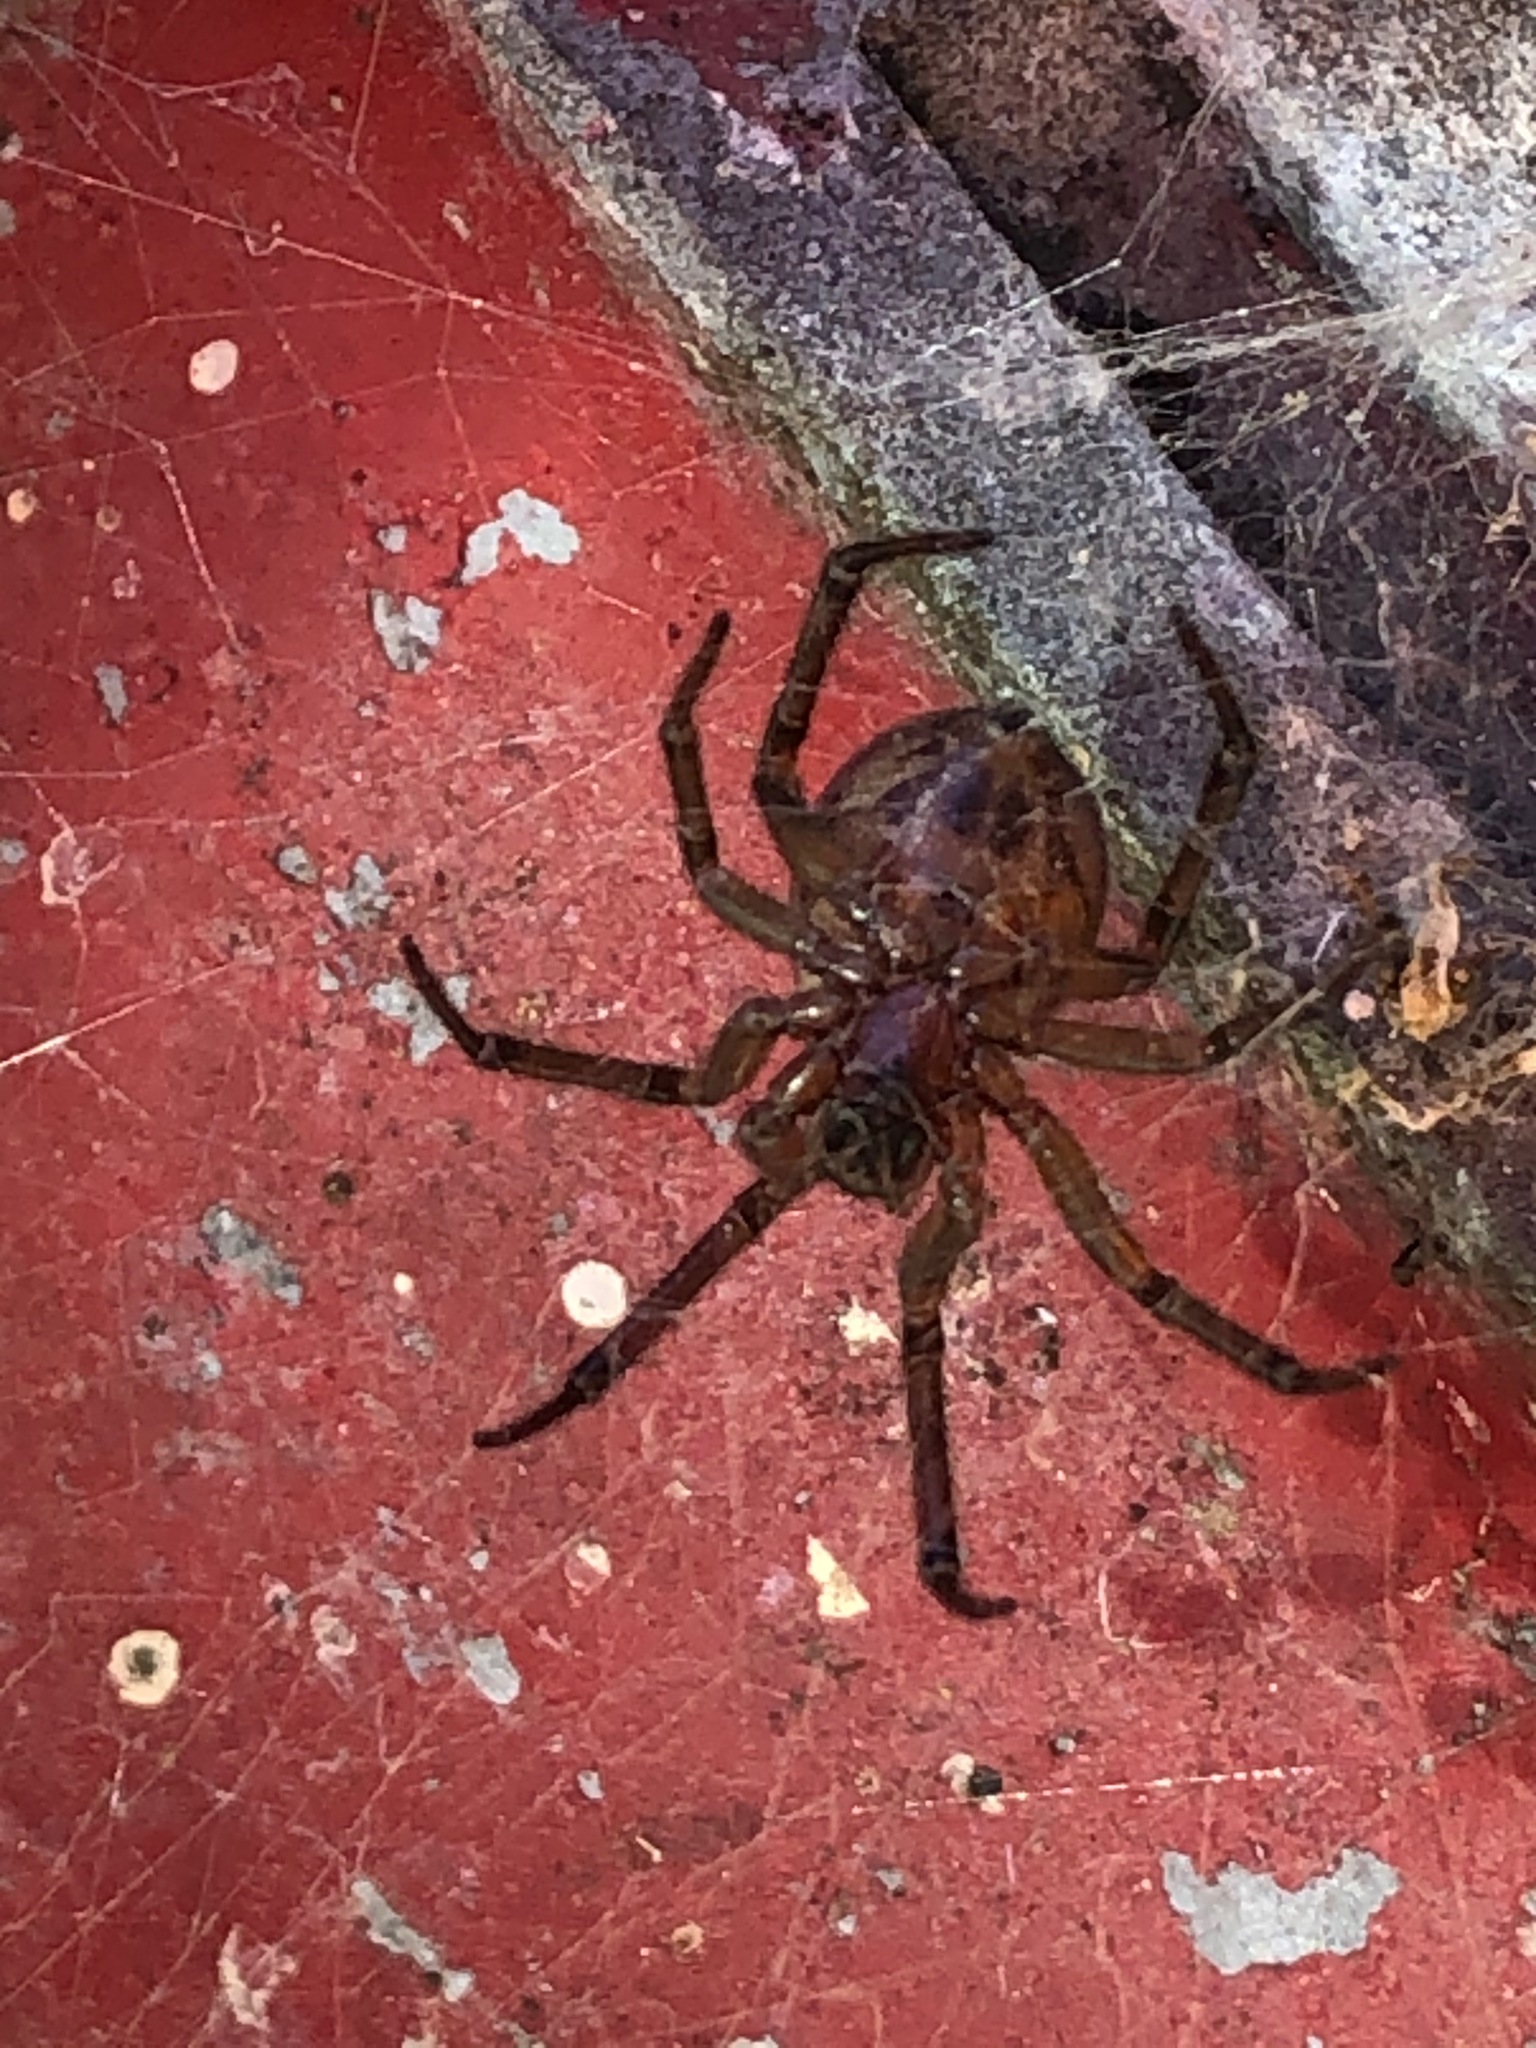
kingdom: Animalia
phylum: Arthropoda
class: Arachnida
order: Araneae
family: Theridiidae
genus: Steatoda
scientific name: Steatoda nobilis
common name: Cobweb weaver
